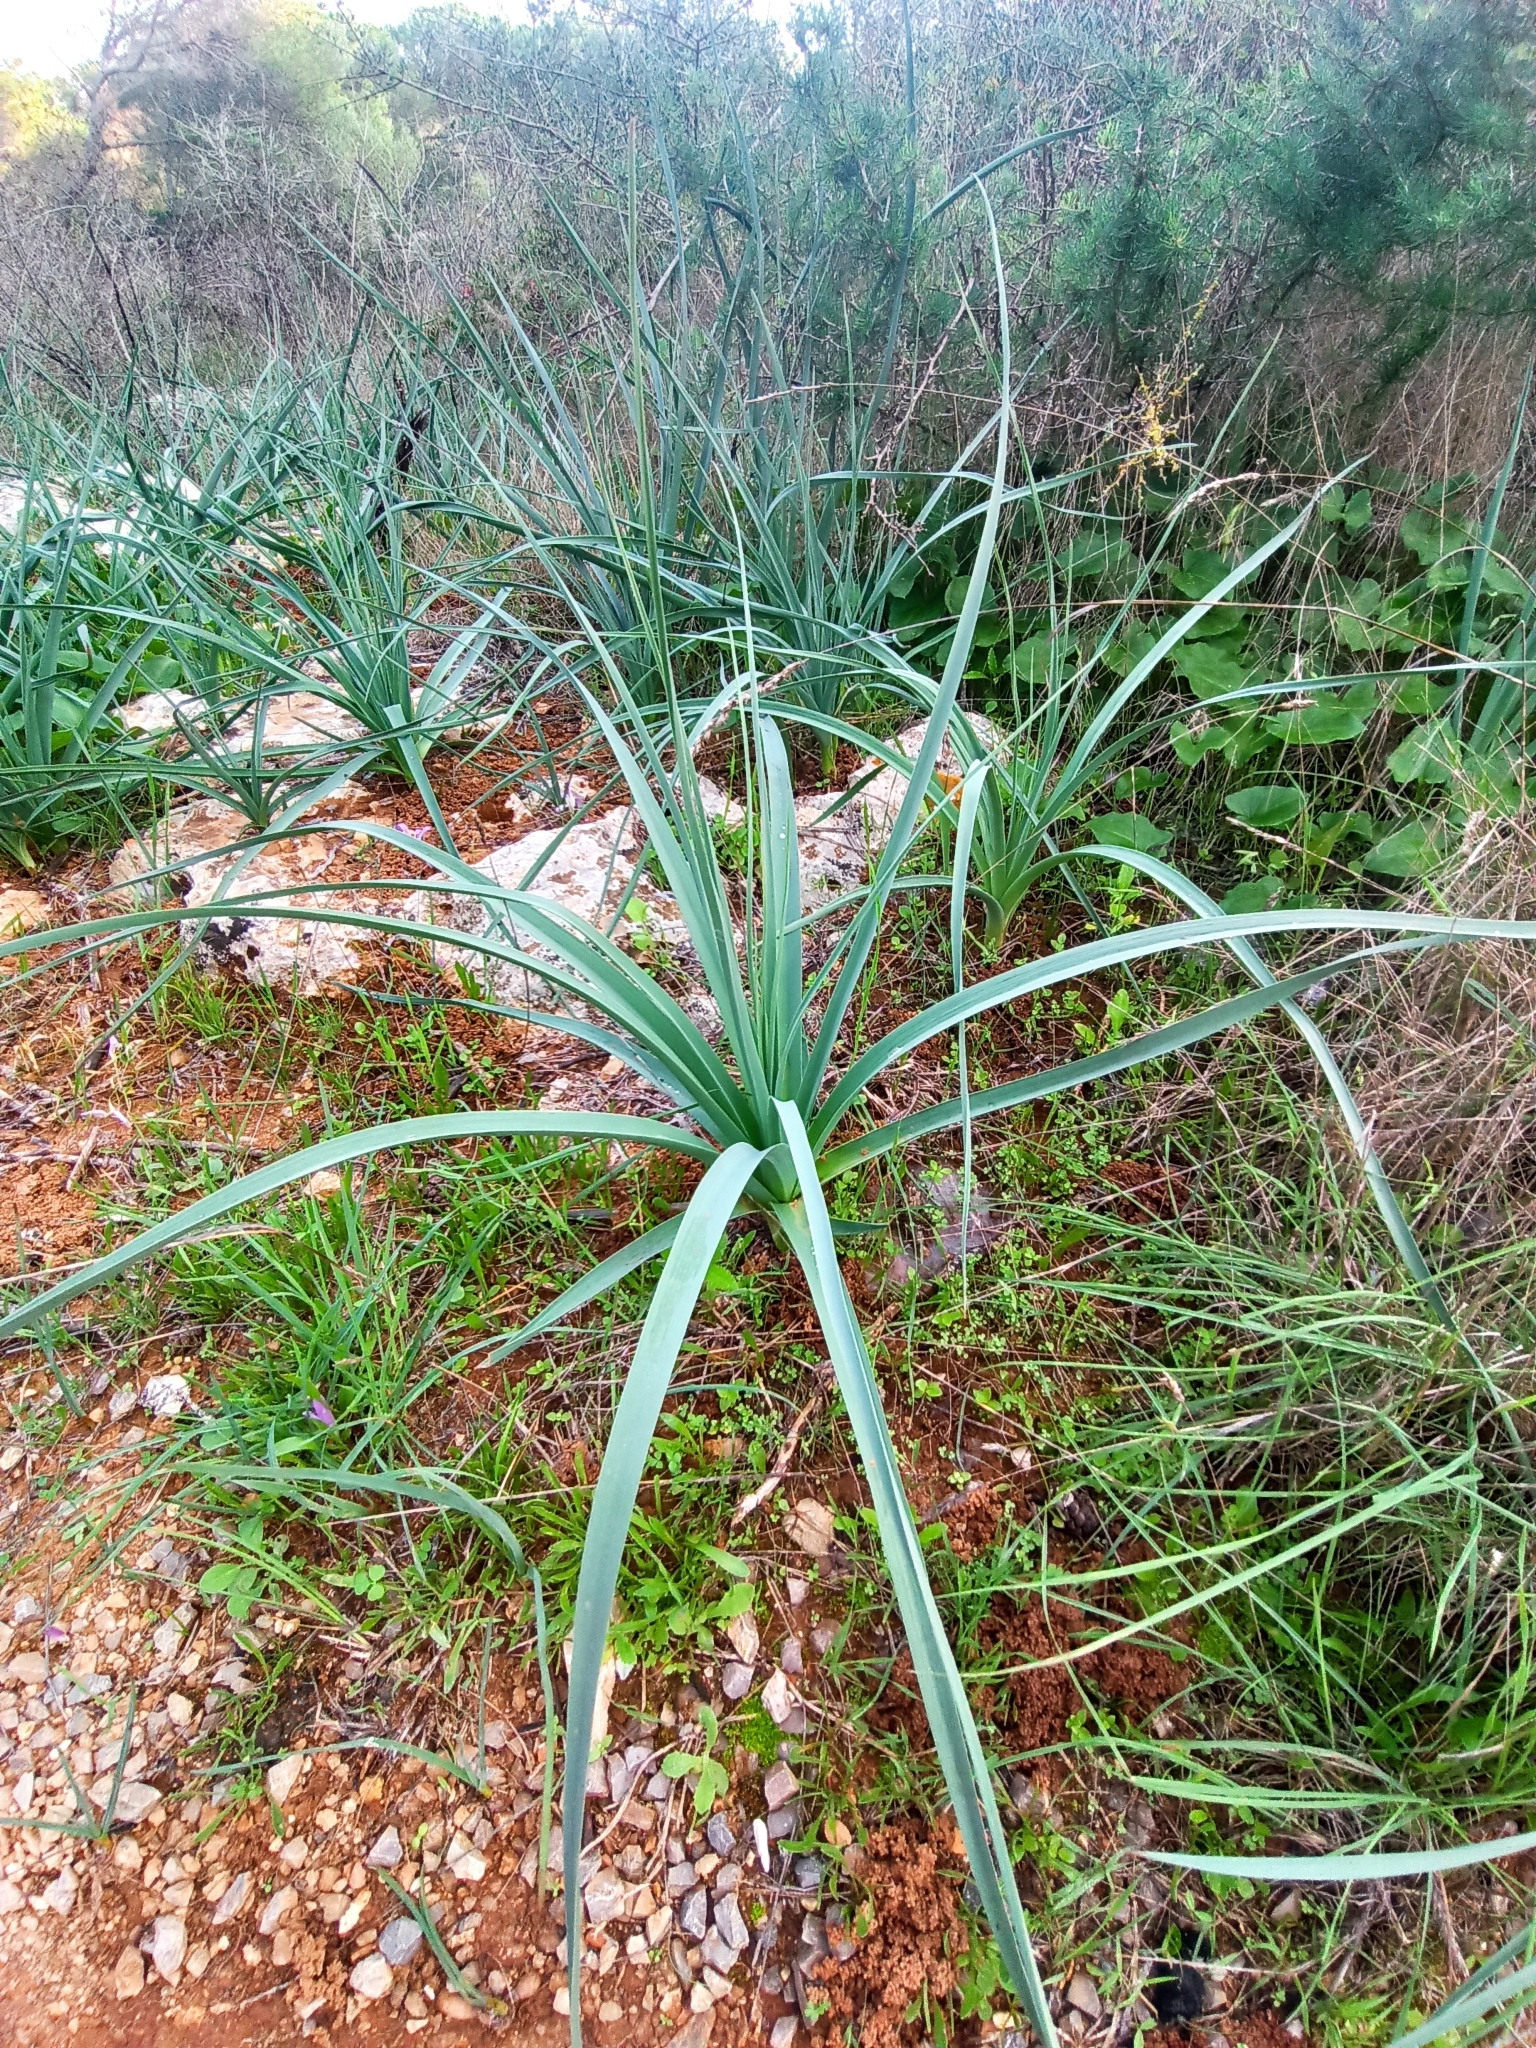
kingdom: Plantae
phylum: Tracheophyta
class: Liliopsida
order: Asparagales
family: Asphodelaceae
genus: Asphodelus
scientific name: Asphodelus ramosus
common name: Silverrod
